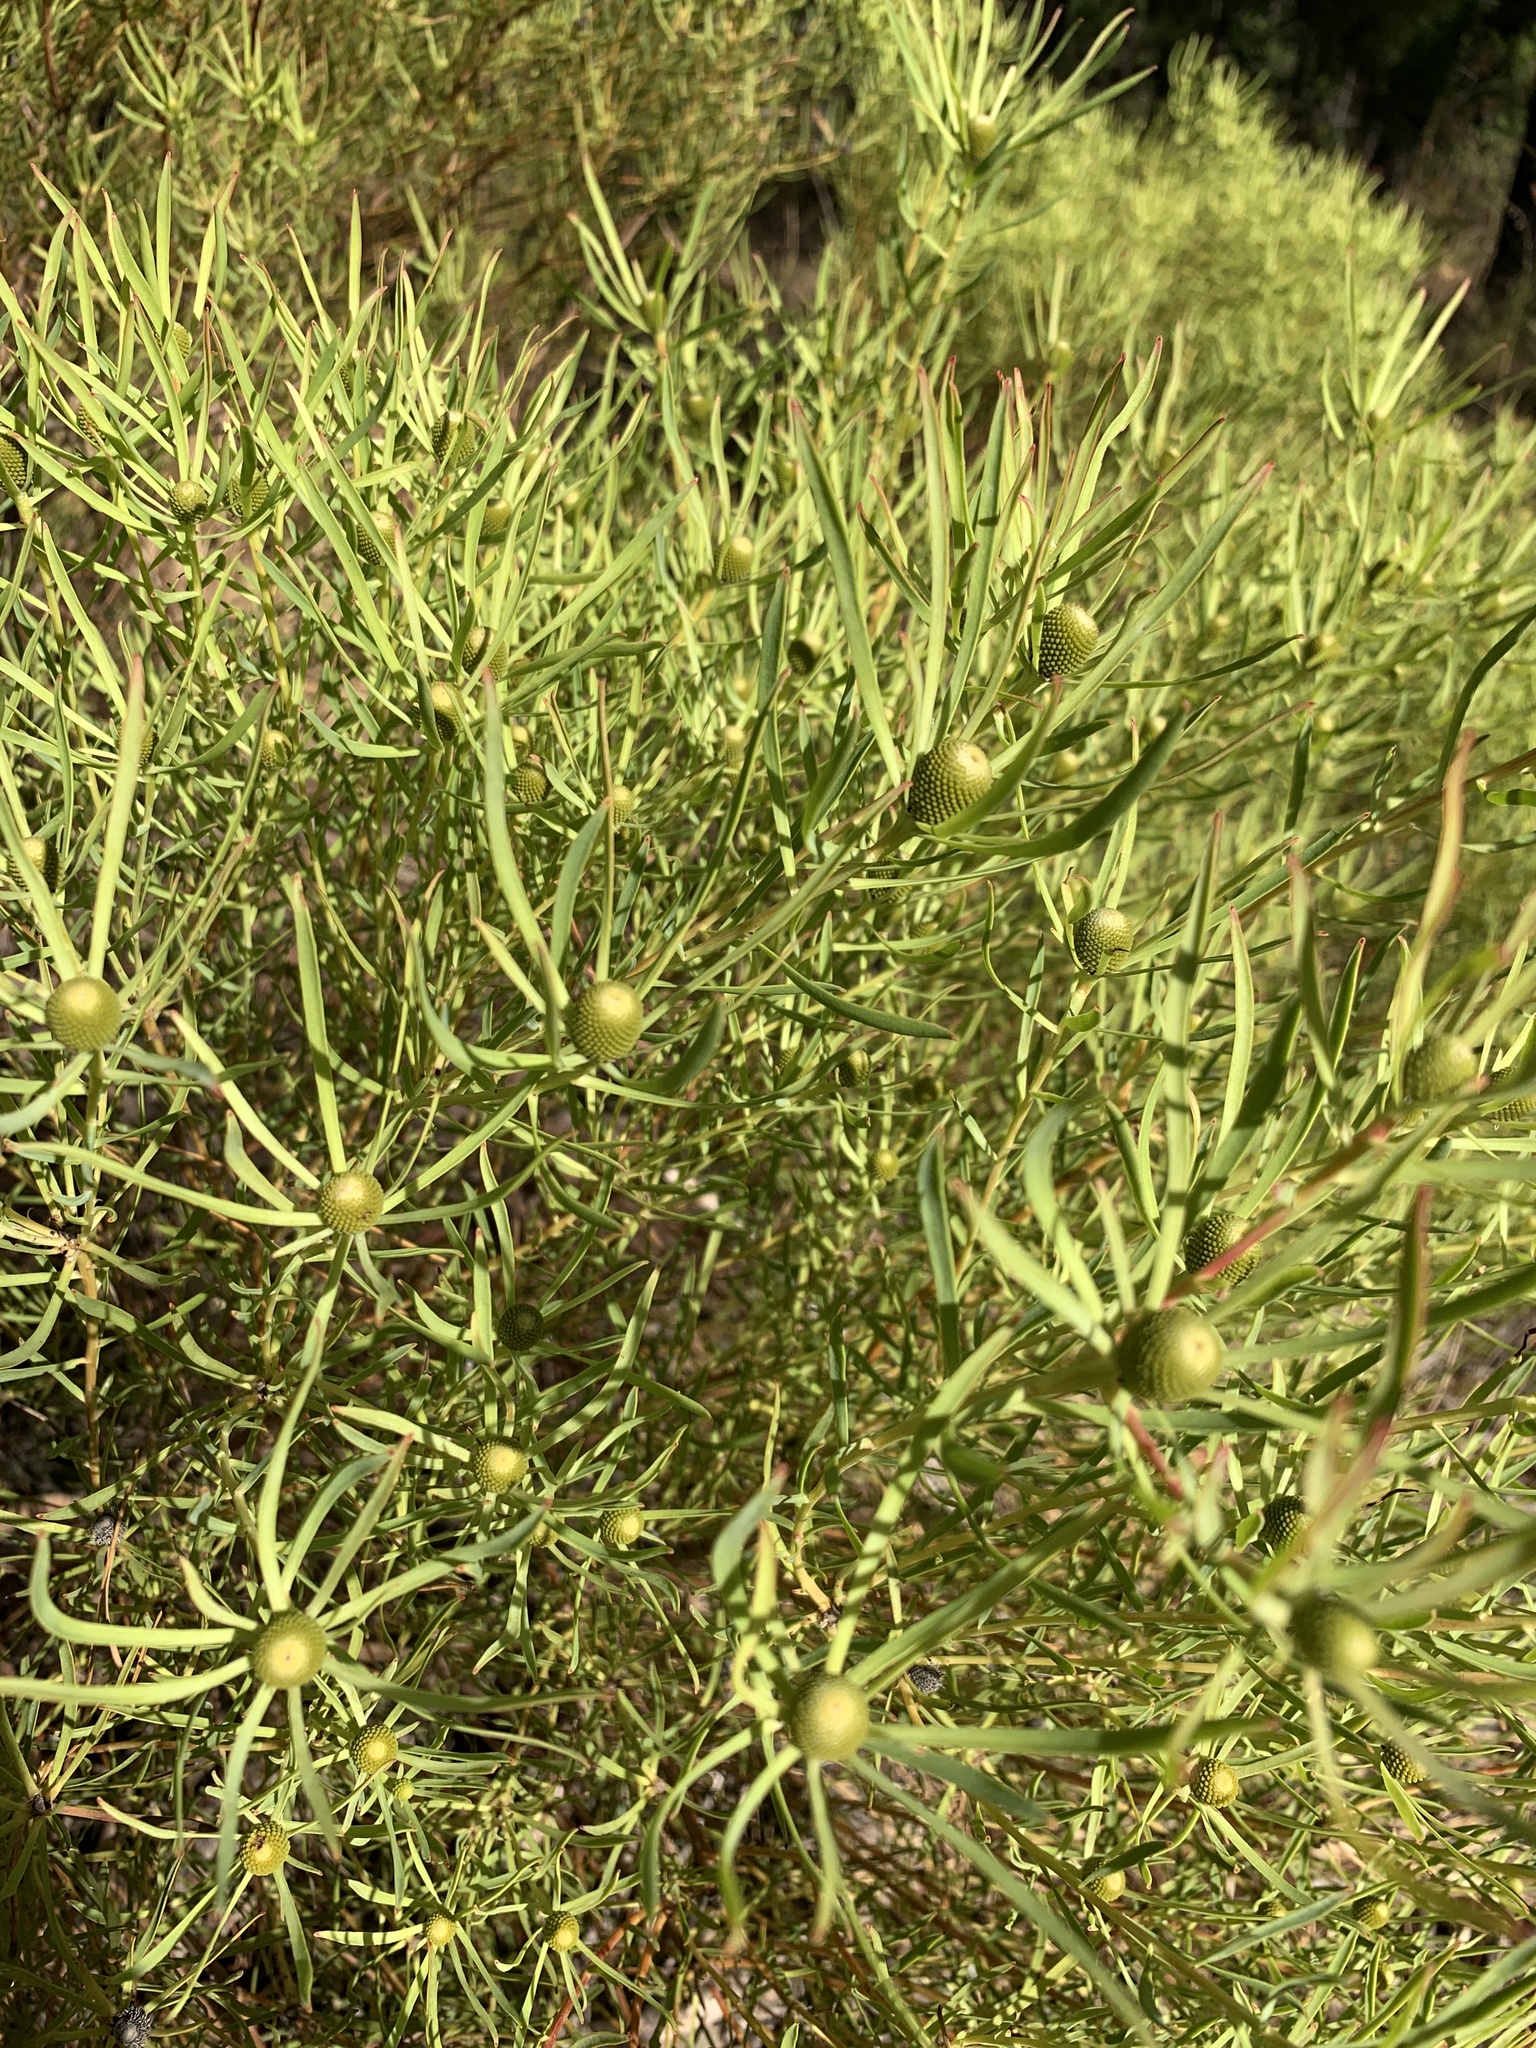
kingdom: Plantae
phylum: Tracheophyta
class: Magnoliopsida
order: Proteales
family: Proteaceae
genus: Leucadendron
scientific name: Leucadendron salignum
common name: Common sunshine conebush
